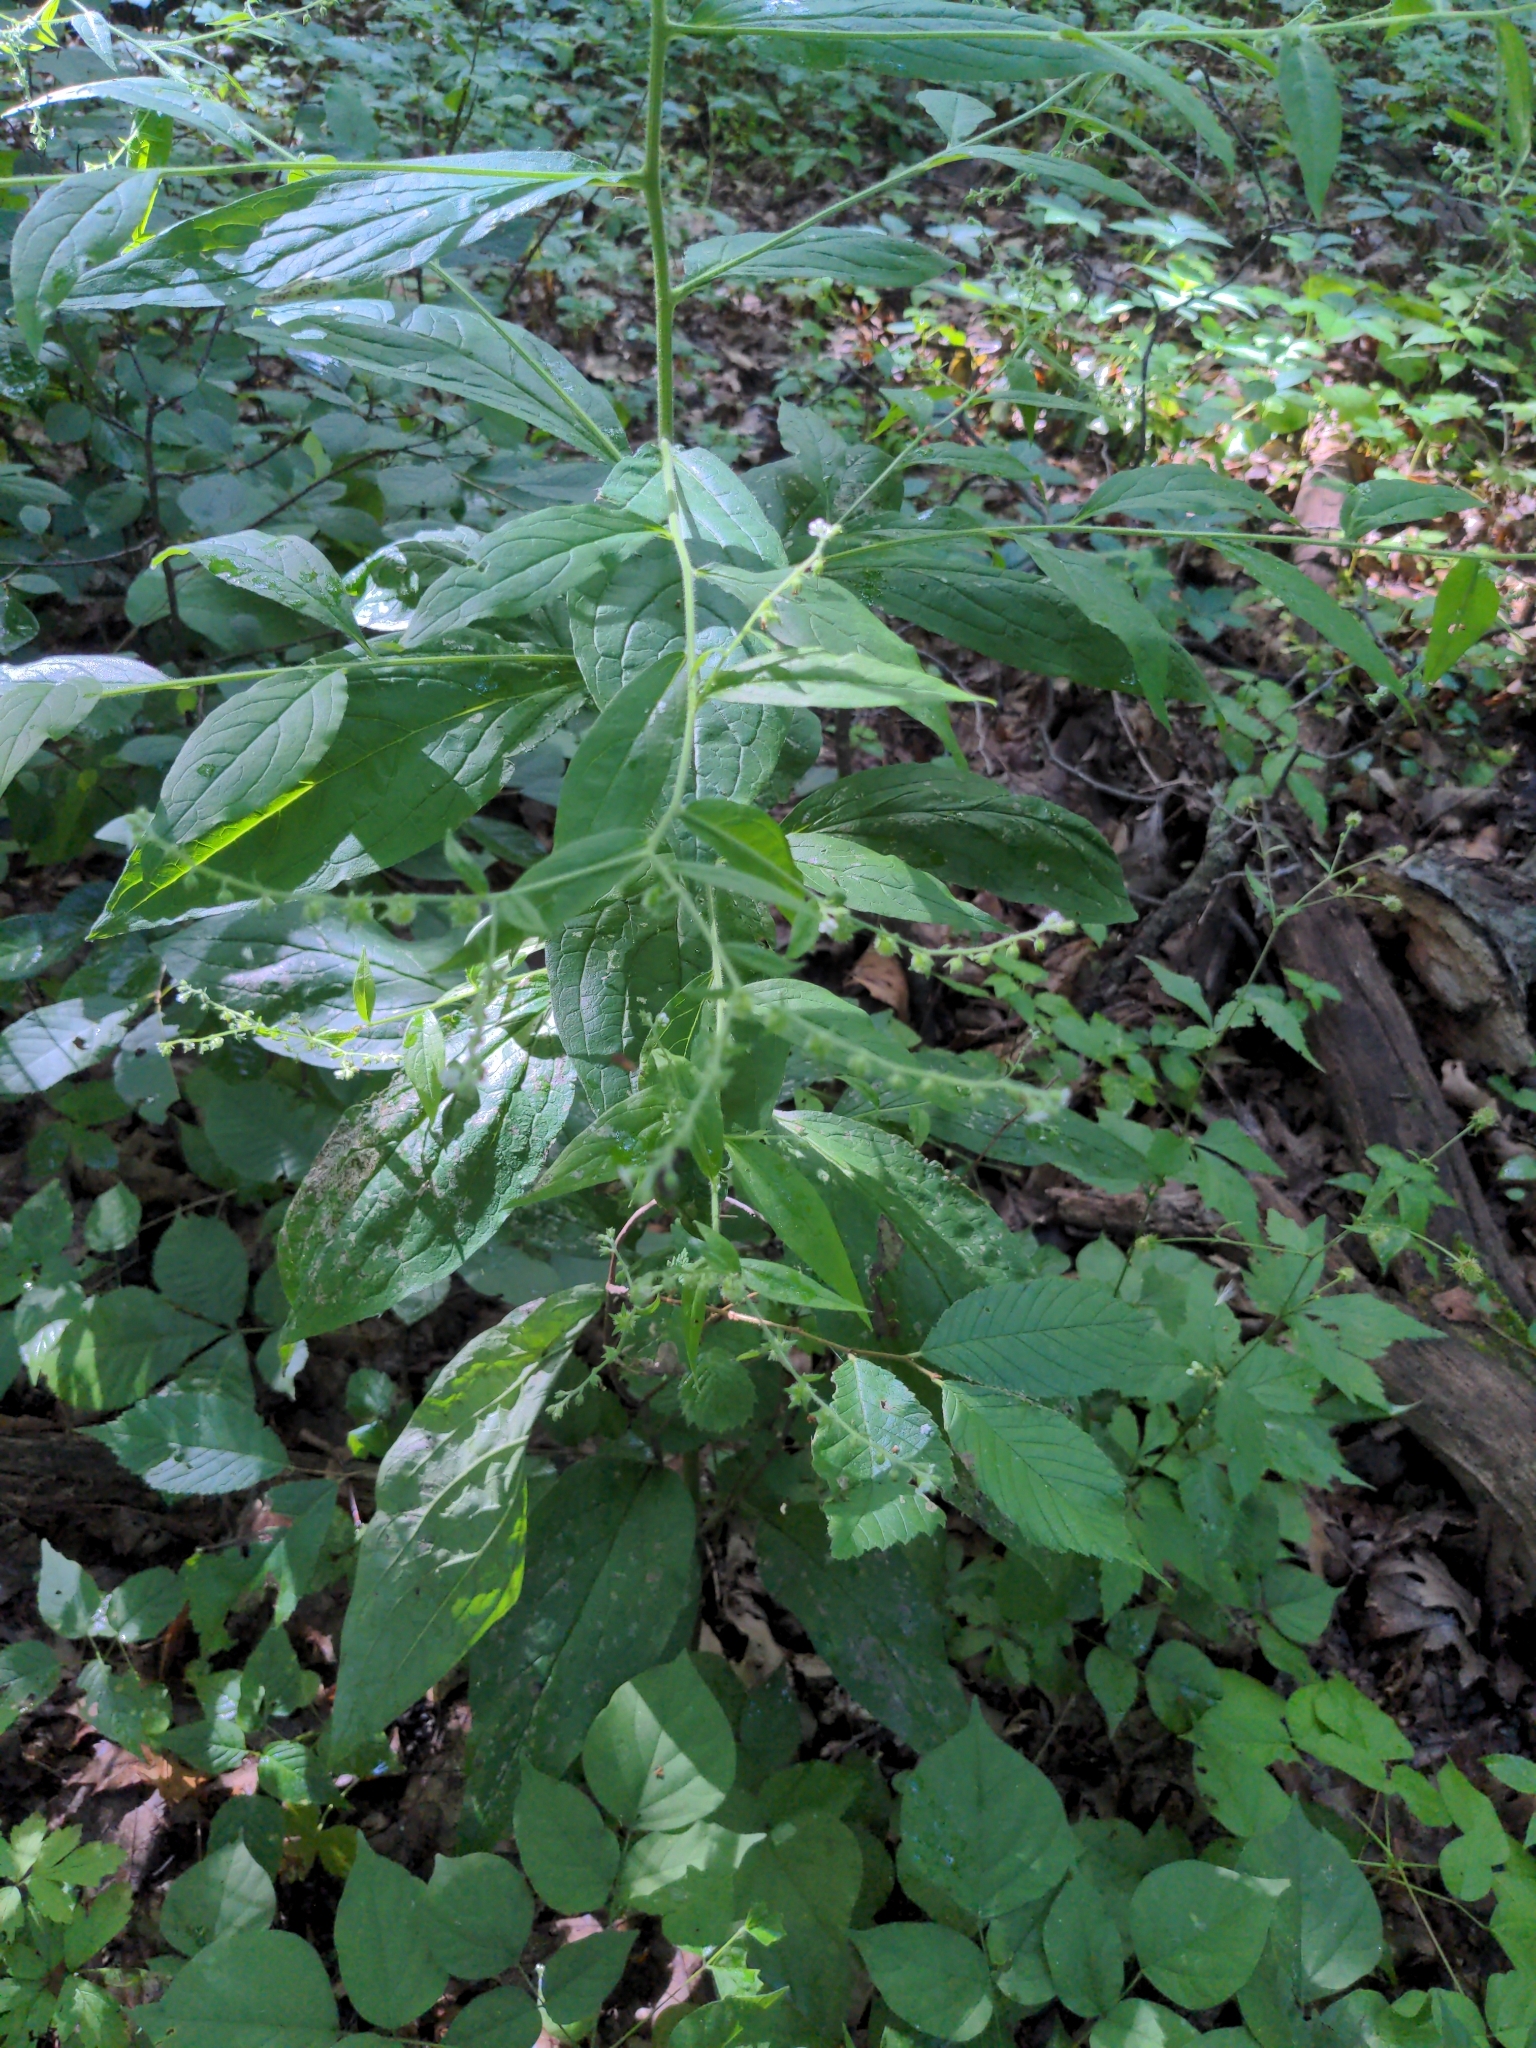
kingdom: Plantae
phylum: Tracheophyta
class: Magnoliopsida
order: Boraginales
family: Boraginaceae
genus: Hackelia
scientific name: Hackelia virginiana
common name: Beggar's-lice
